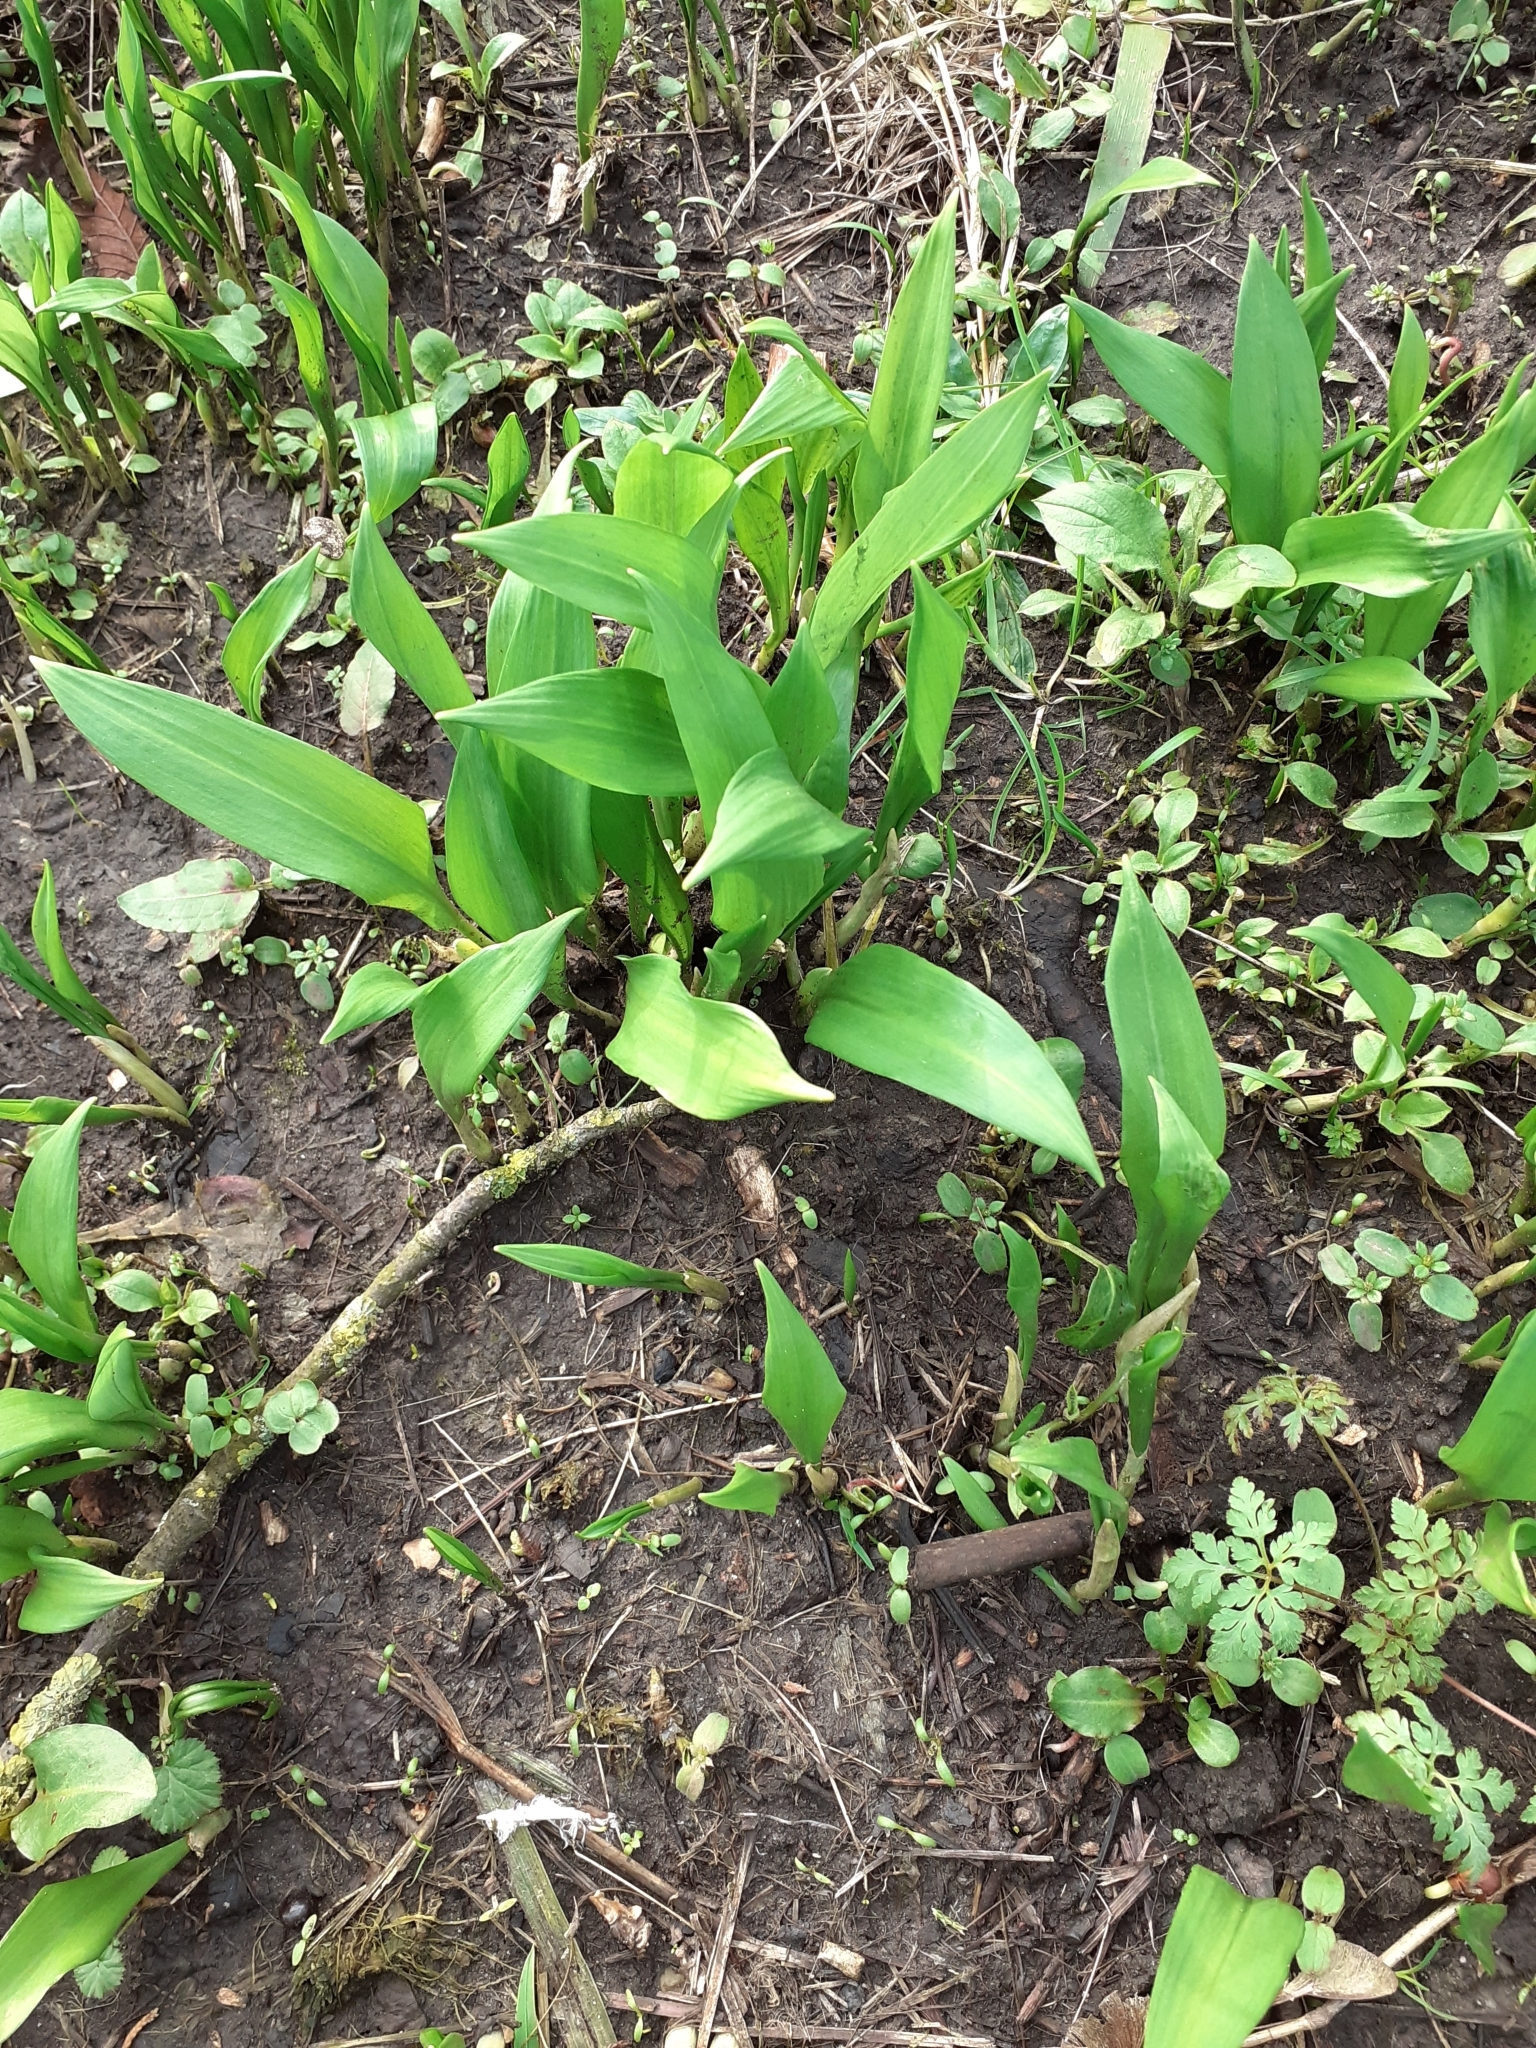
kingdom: Plantae
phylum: Tracheophyta
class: Liliopsida
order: Asparagales
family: Amaryllidaceae
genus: Allium
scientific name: Allium ursinum
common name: Ramsons
